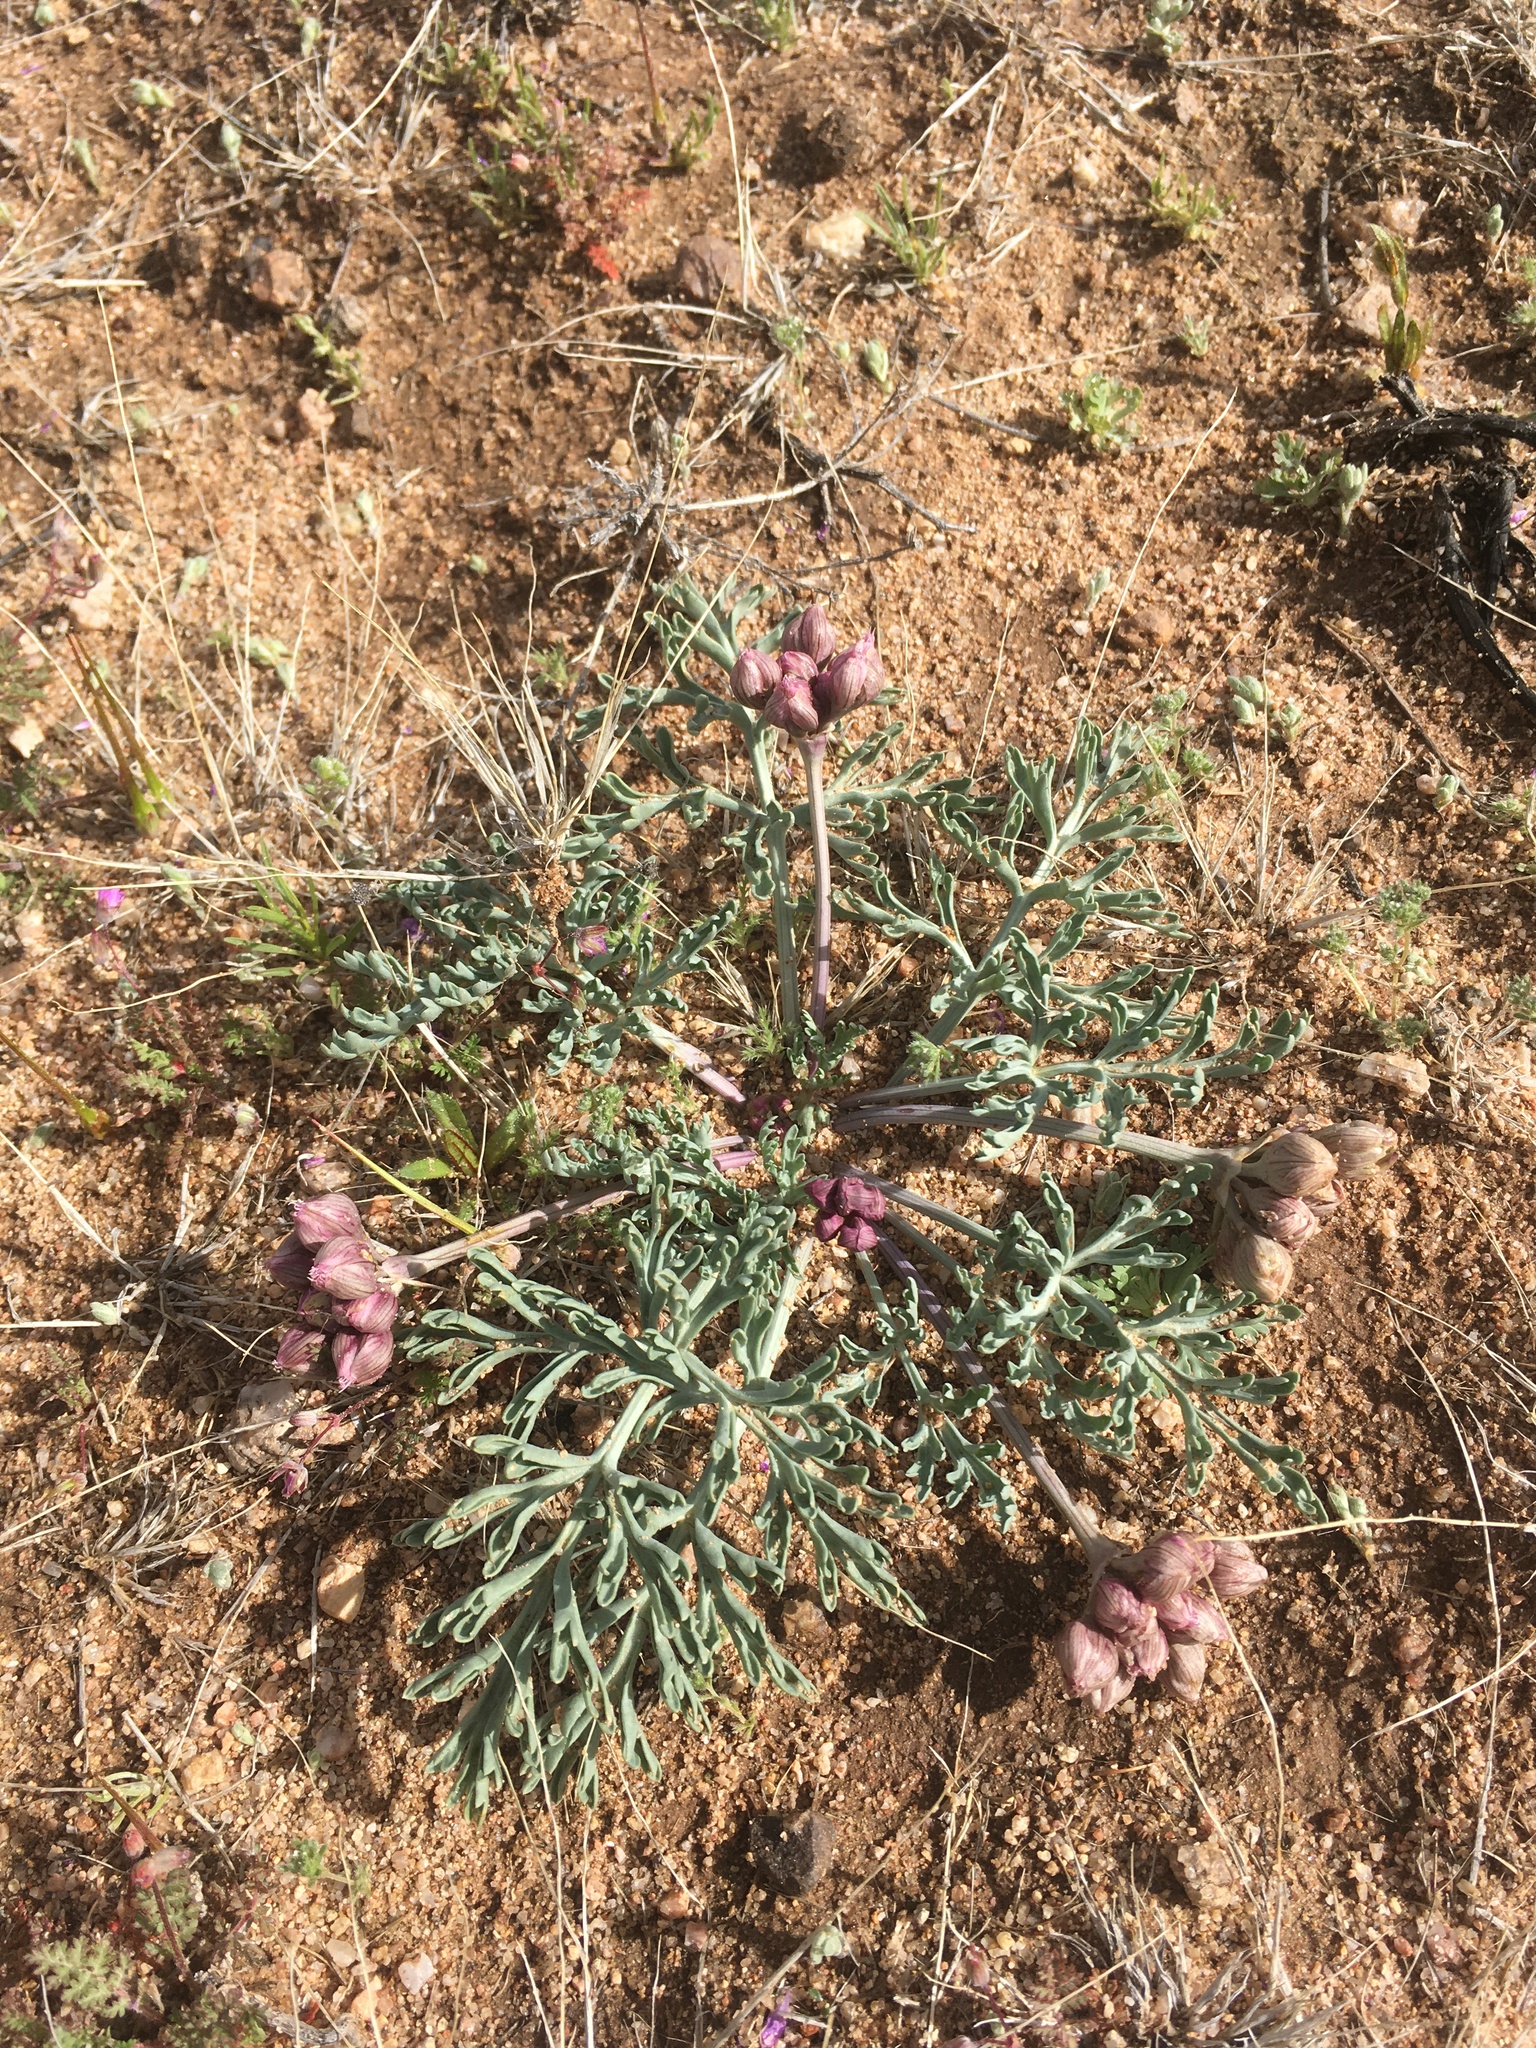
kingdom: Plantae
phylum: Tracheophyta
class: Magnoliopsida
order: Apiales
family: Apiaceae
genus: Vesper
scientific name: Vesper multinervatus
